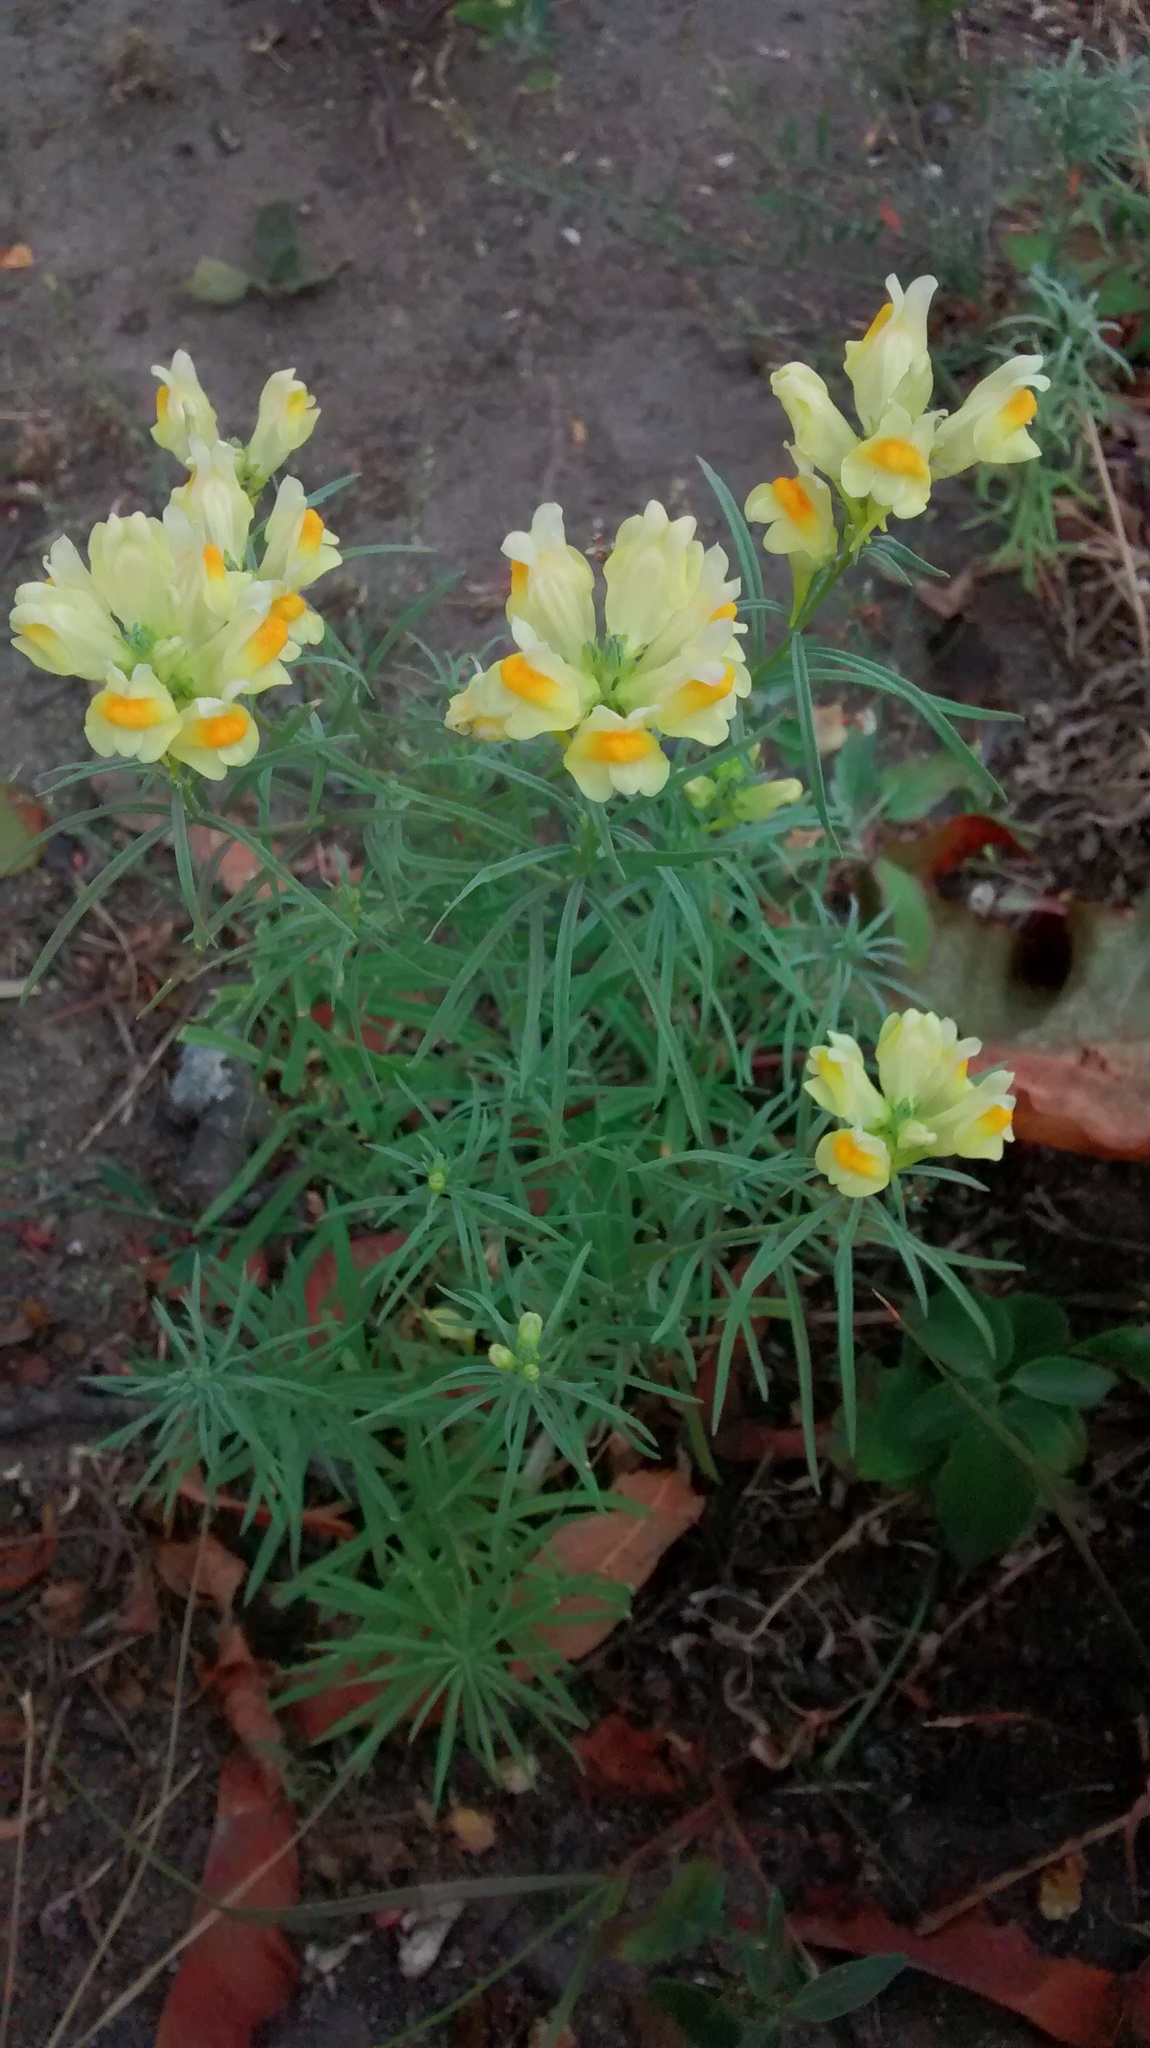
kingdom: Plantae
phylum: Tracheophyta
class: Magnoliopsida
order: Lamiales
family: Plantaginaceae
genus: Linaria
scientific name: Linaria vulgaris
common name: Butter and eggs
